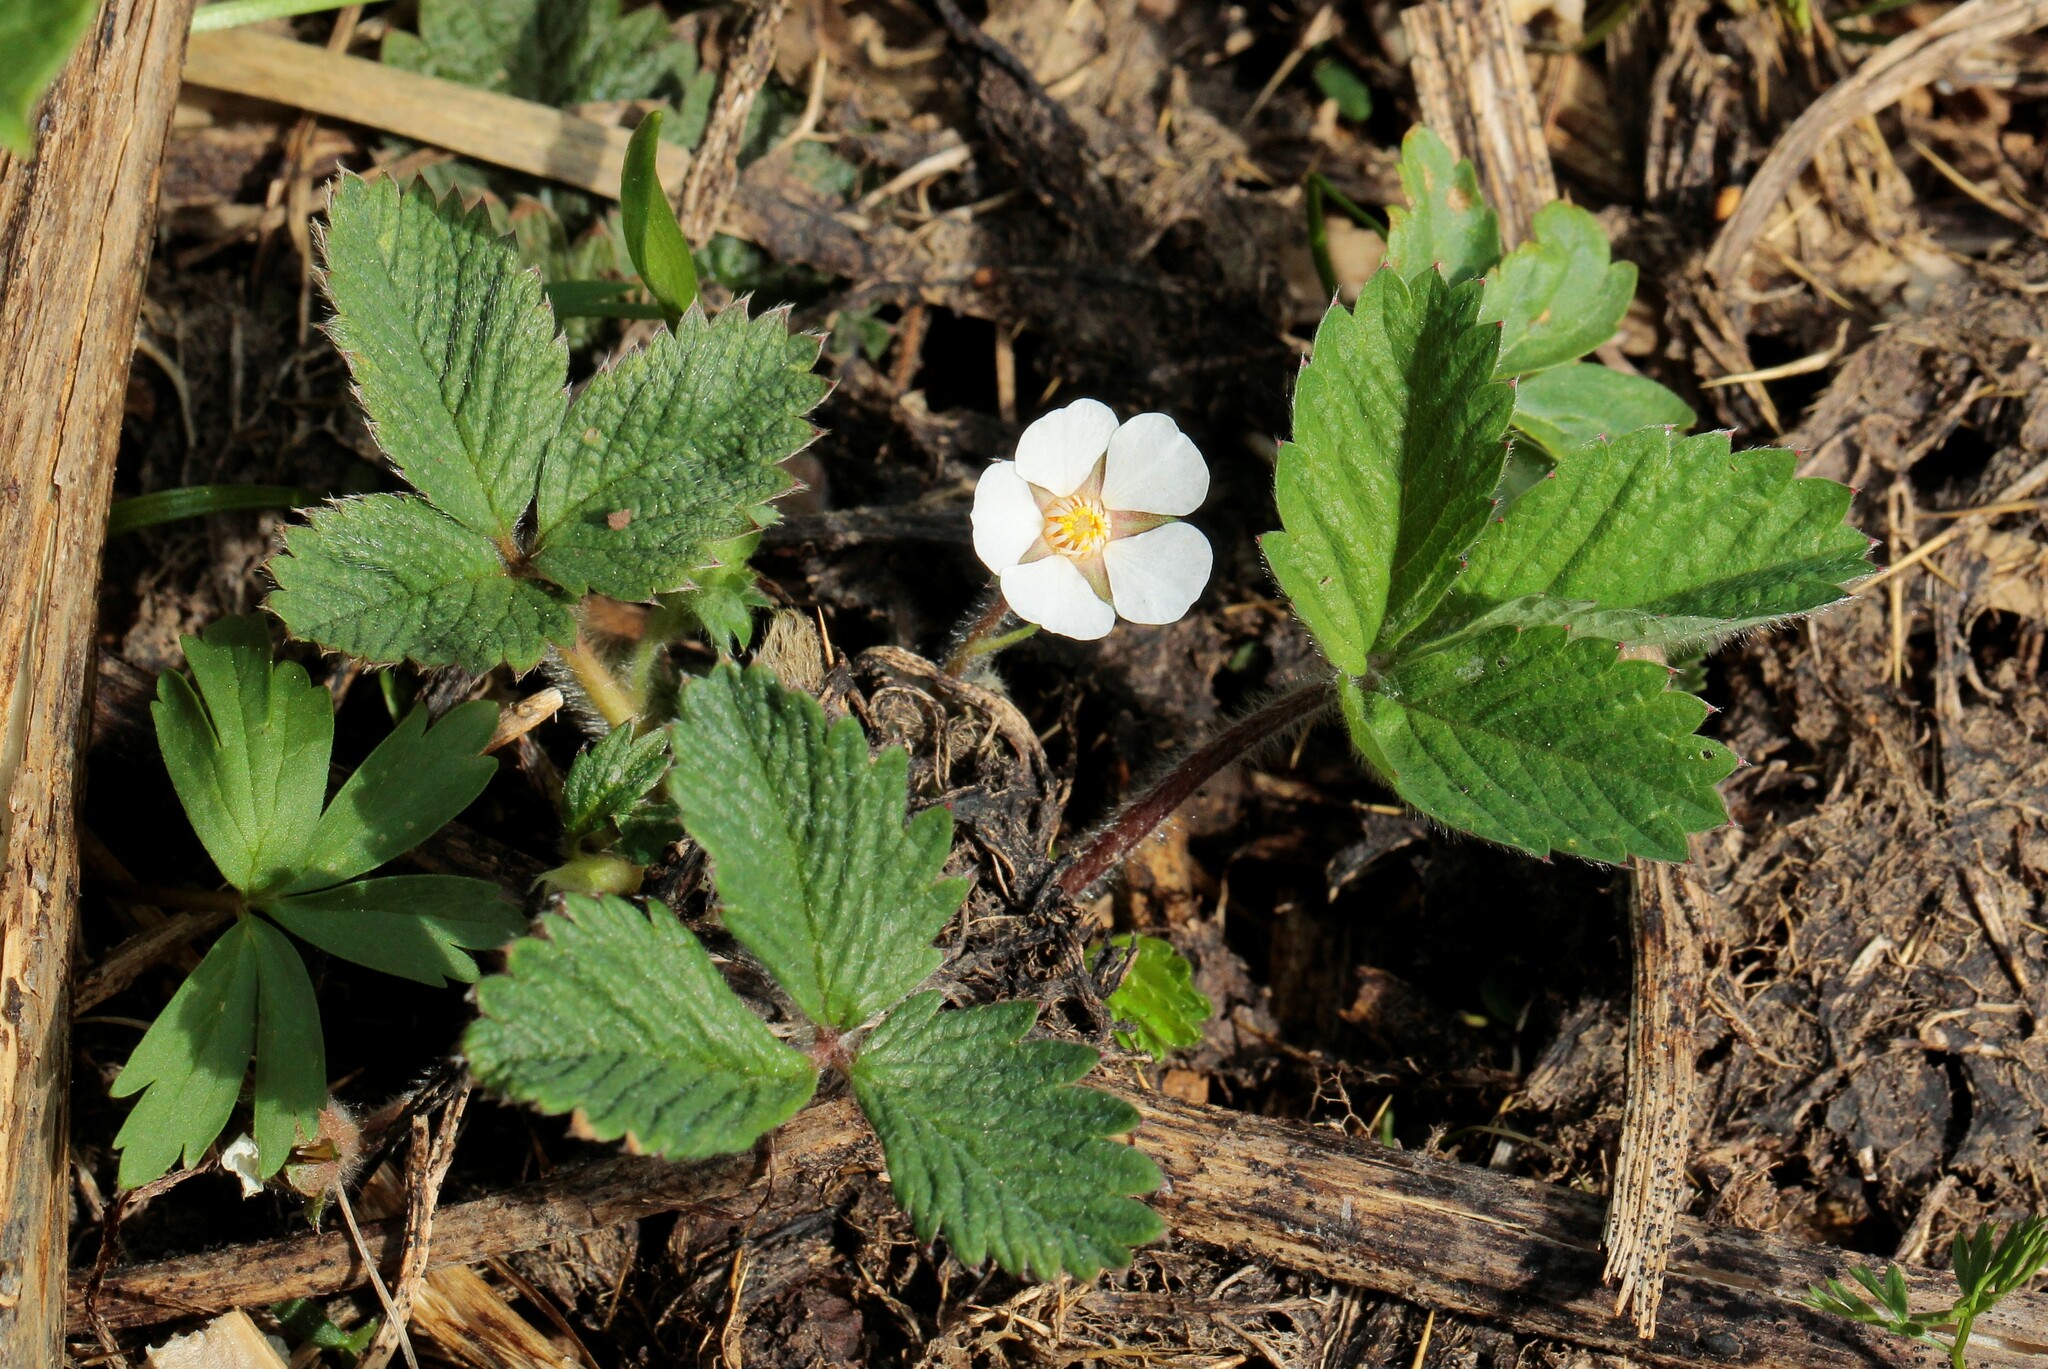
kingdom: Plantae
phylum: Tracheophyta
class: Magnoliopsida
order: Rosales
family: Rosaceae
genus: Potentilla
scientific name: Potentilla micrantha
